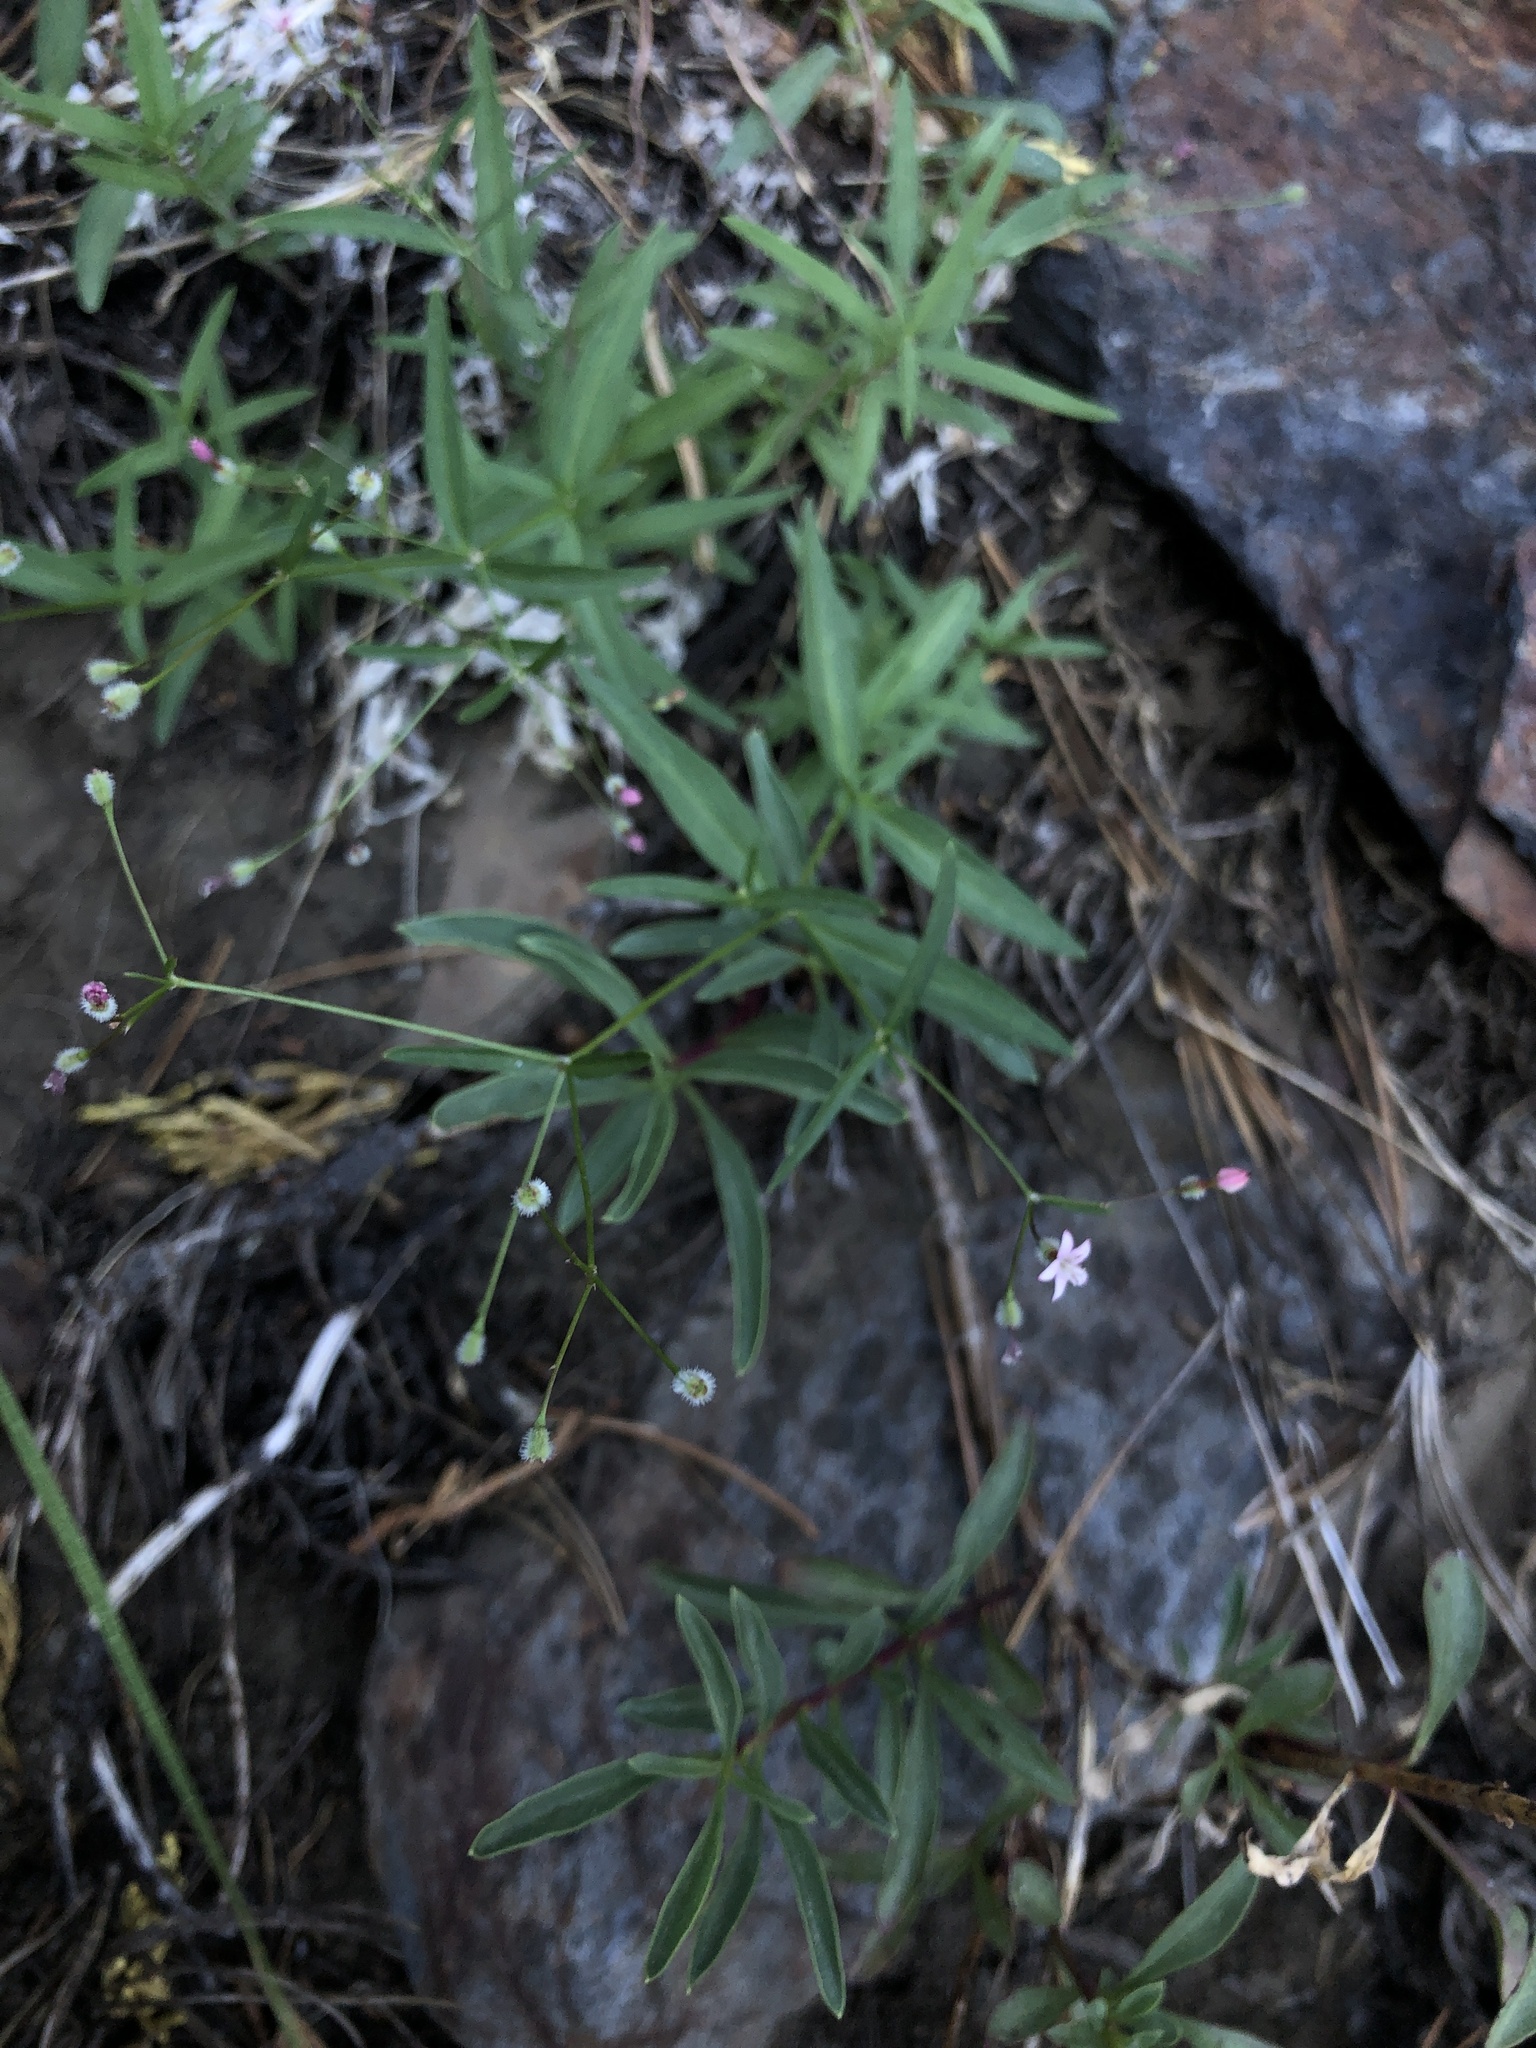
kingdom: Plantae
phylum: Tracheophyta
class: Magnoliopsida
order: Gentianales
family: Rubiaceae
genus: Kelloggia
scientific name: Kelloggia galioides
